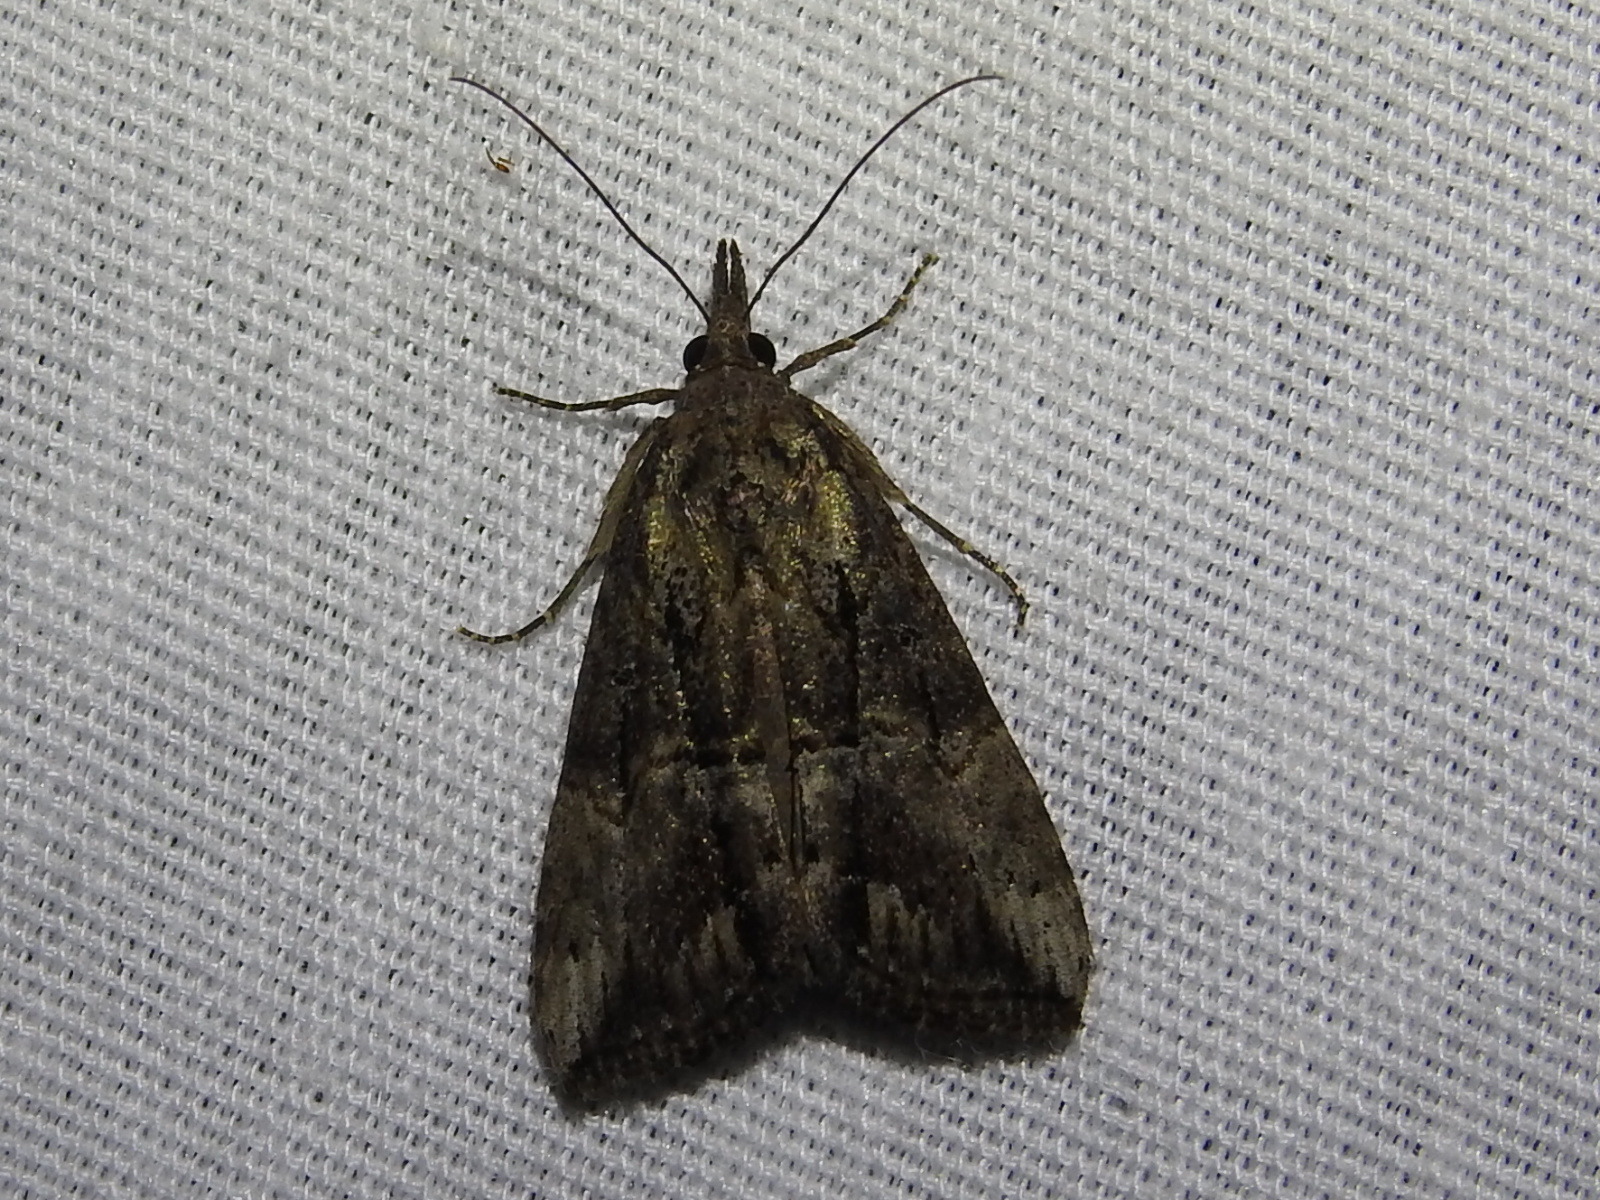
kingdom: Animalia
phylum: Arthropoda
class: Insecta
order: Lepidoptera
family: Erebidae
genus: Hypena
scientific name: Hypena scabra
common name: Green cloverworm
